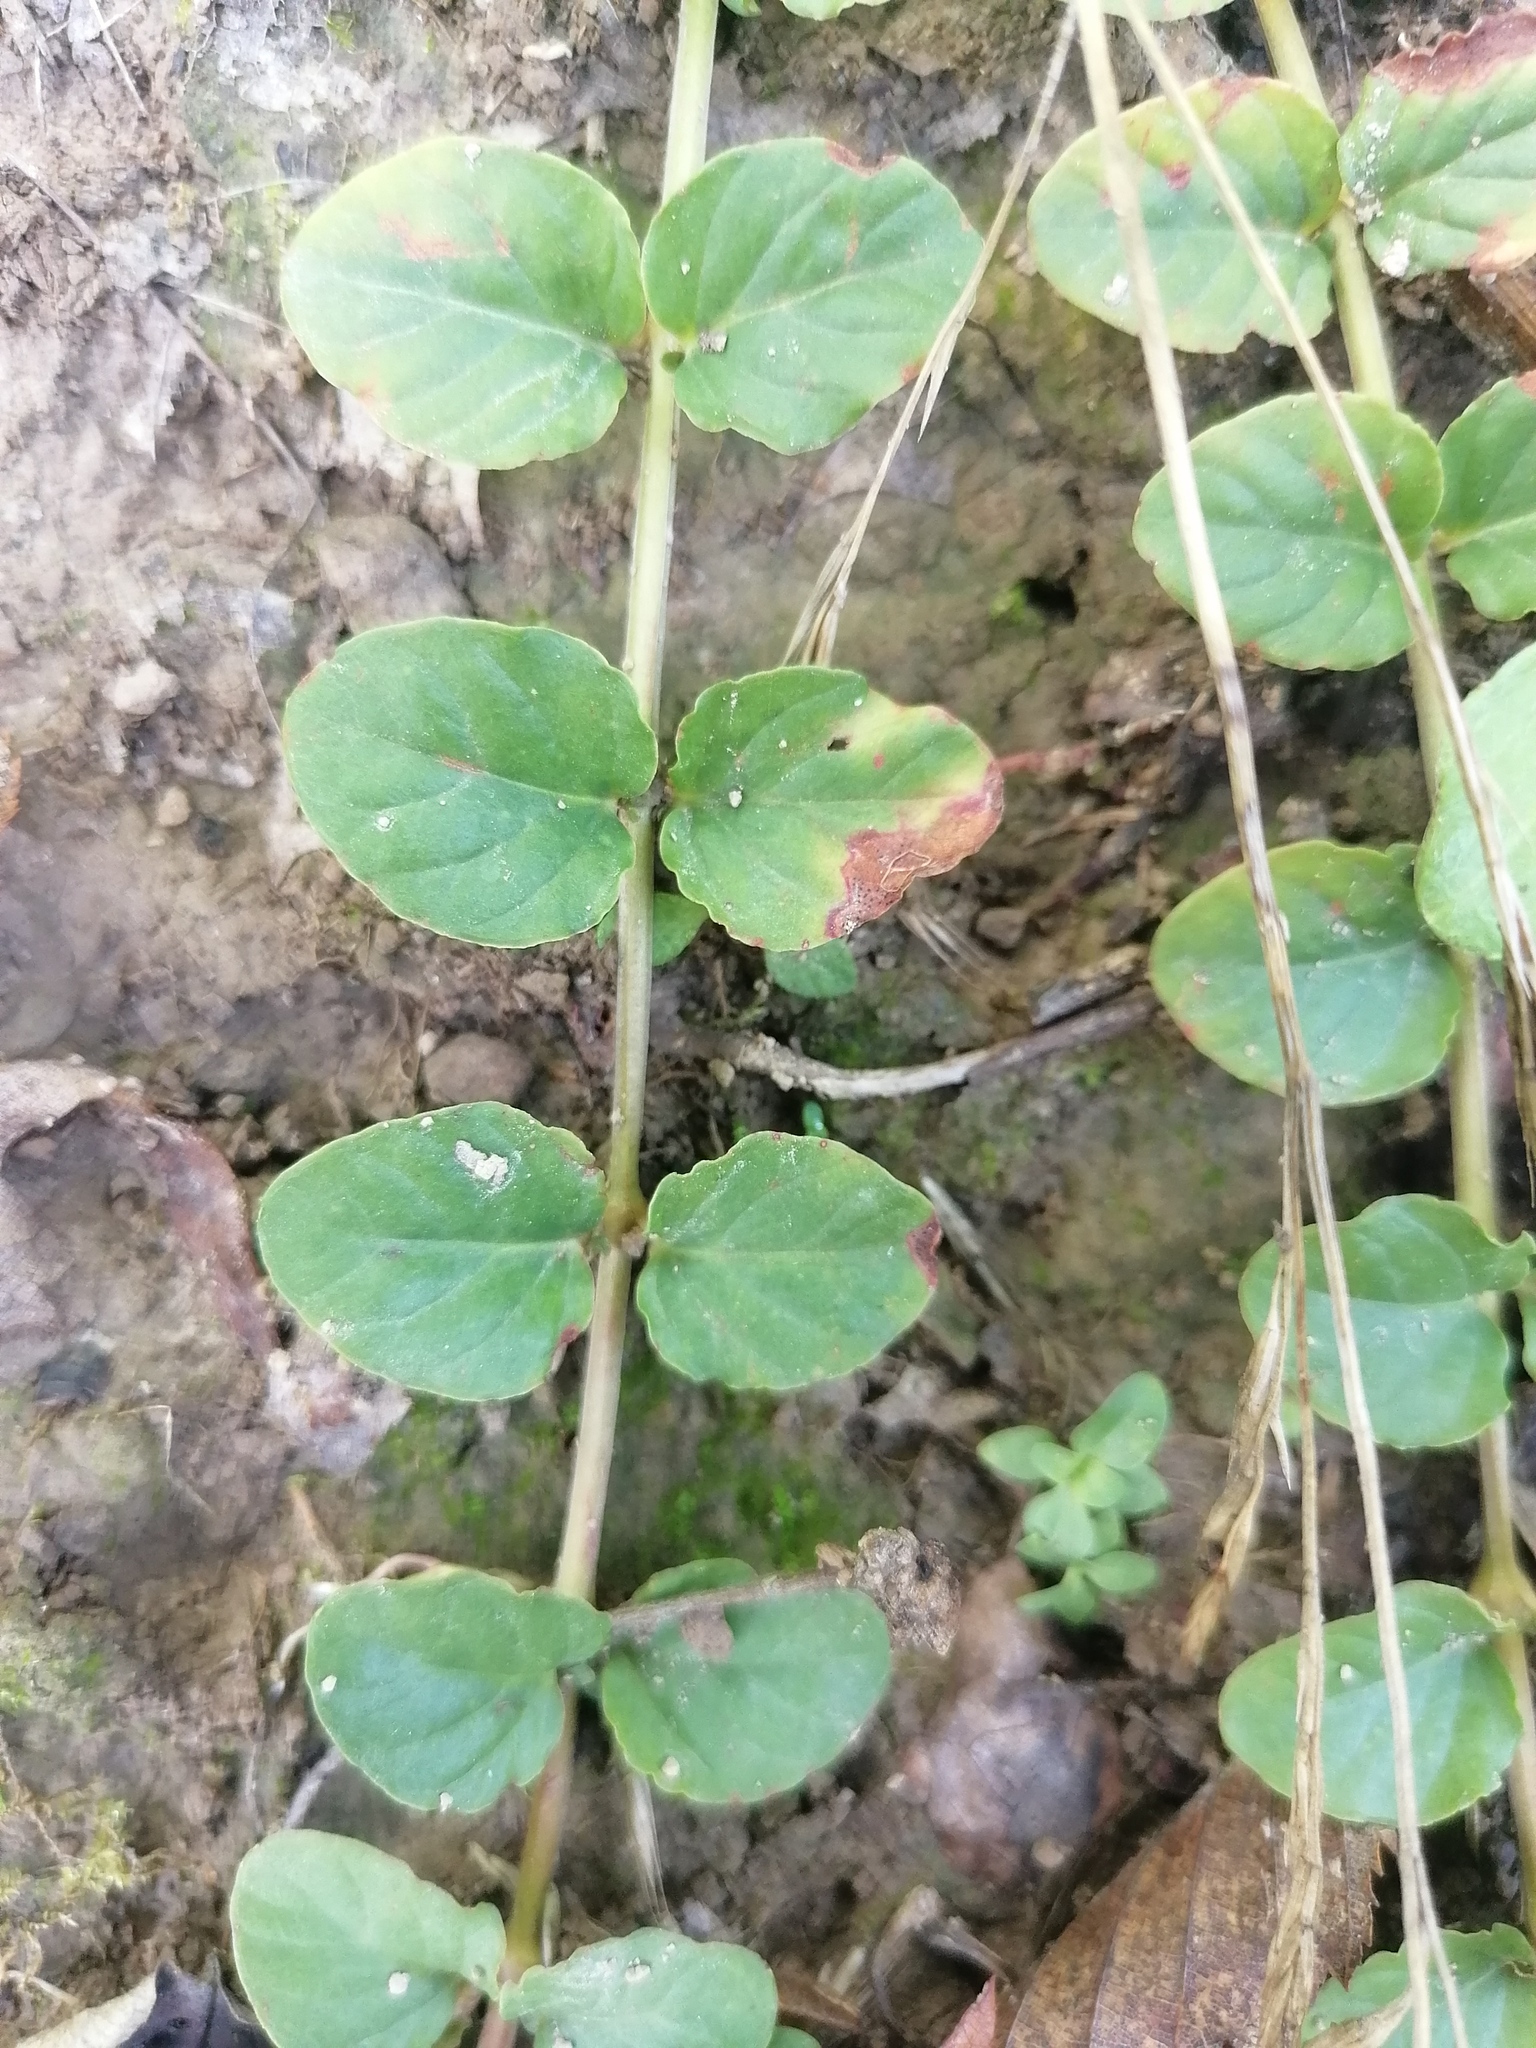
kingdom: Plantae
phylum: Tracheophyta
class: Magnoliopsida
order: Ericales
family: Primulaceae
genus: Lysimachia
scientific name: Lysimachia nummularia
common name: Moneywort
